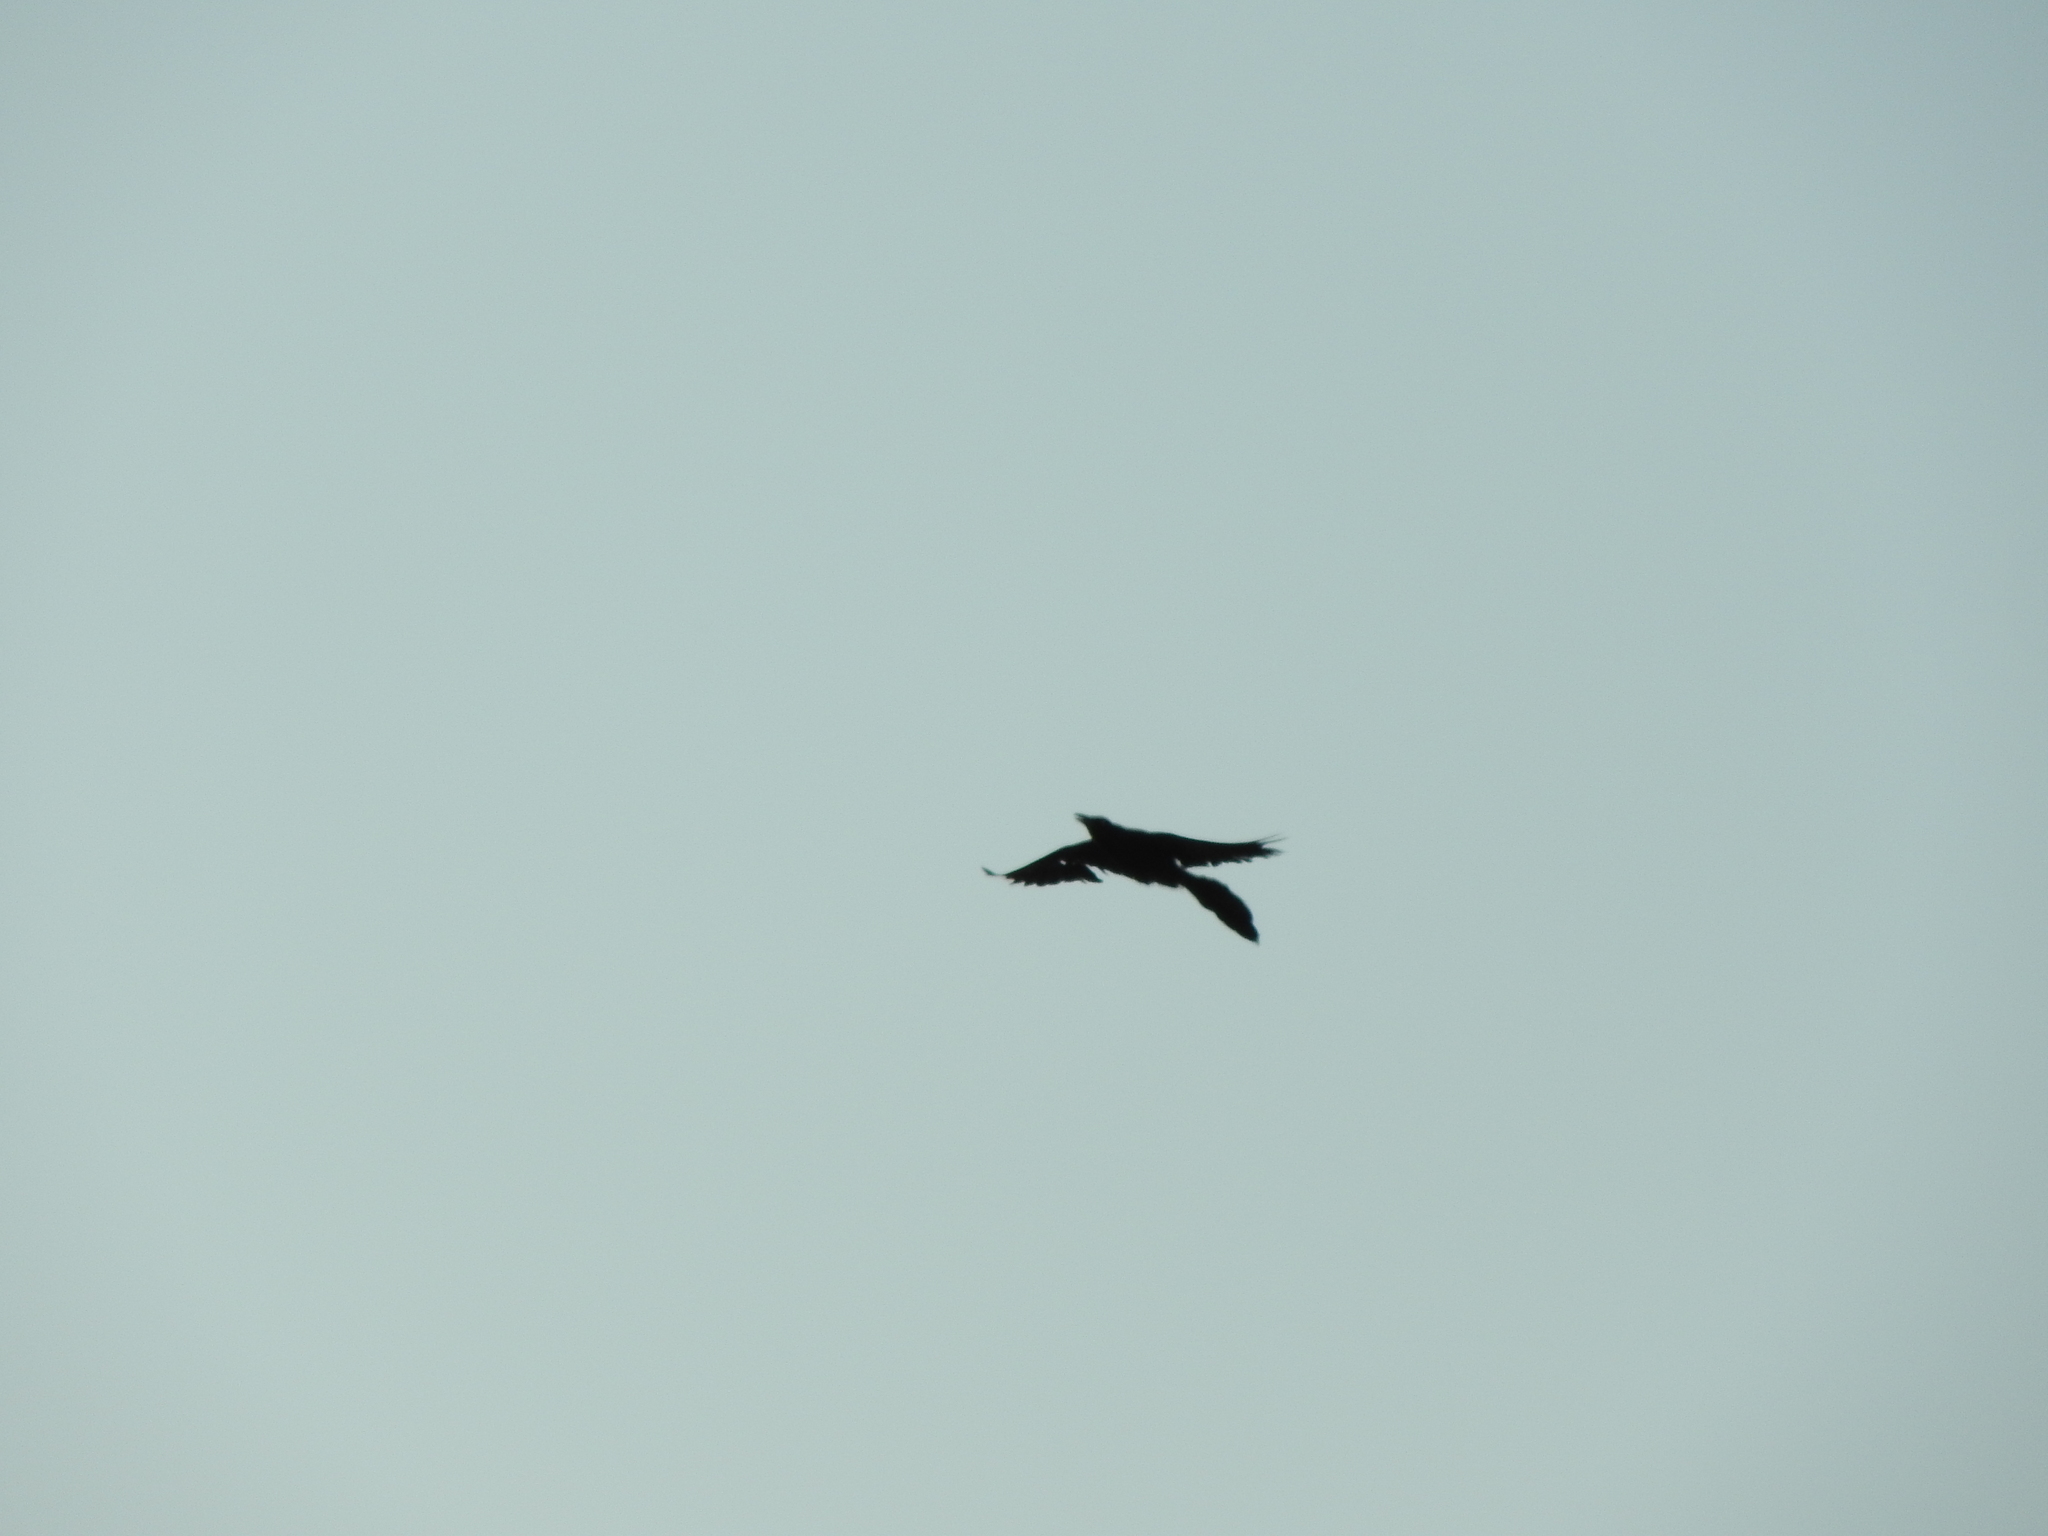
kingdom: Animalia
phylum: Chordata
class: Aves
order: Passeriformes
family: Icteridae
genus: Quiscalus
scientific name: Quiscalus mexicanus
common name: Great-tailed grackle
